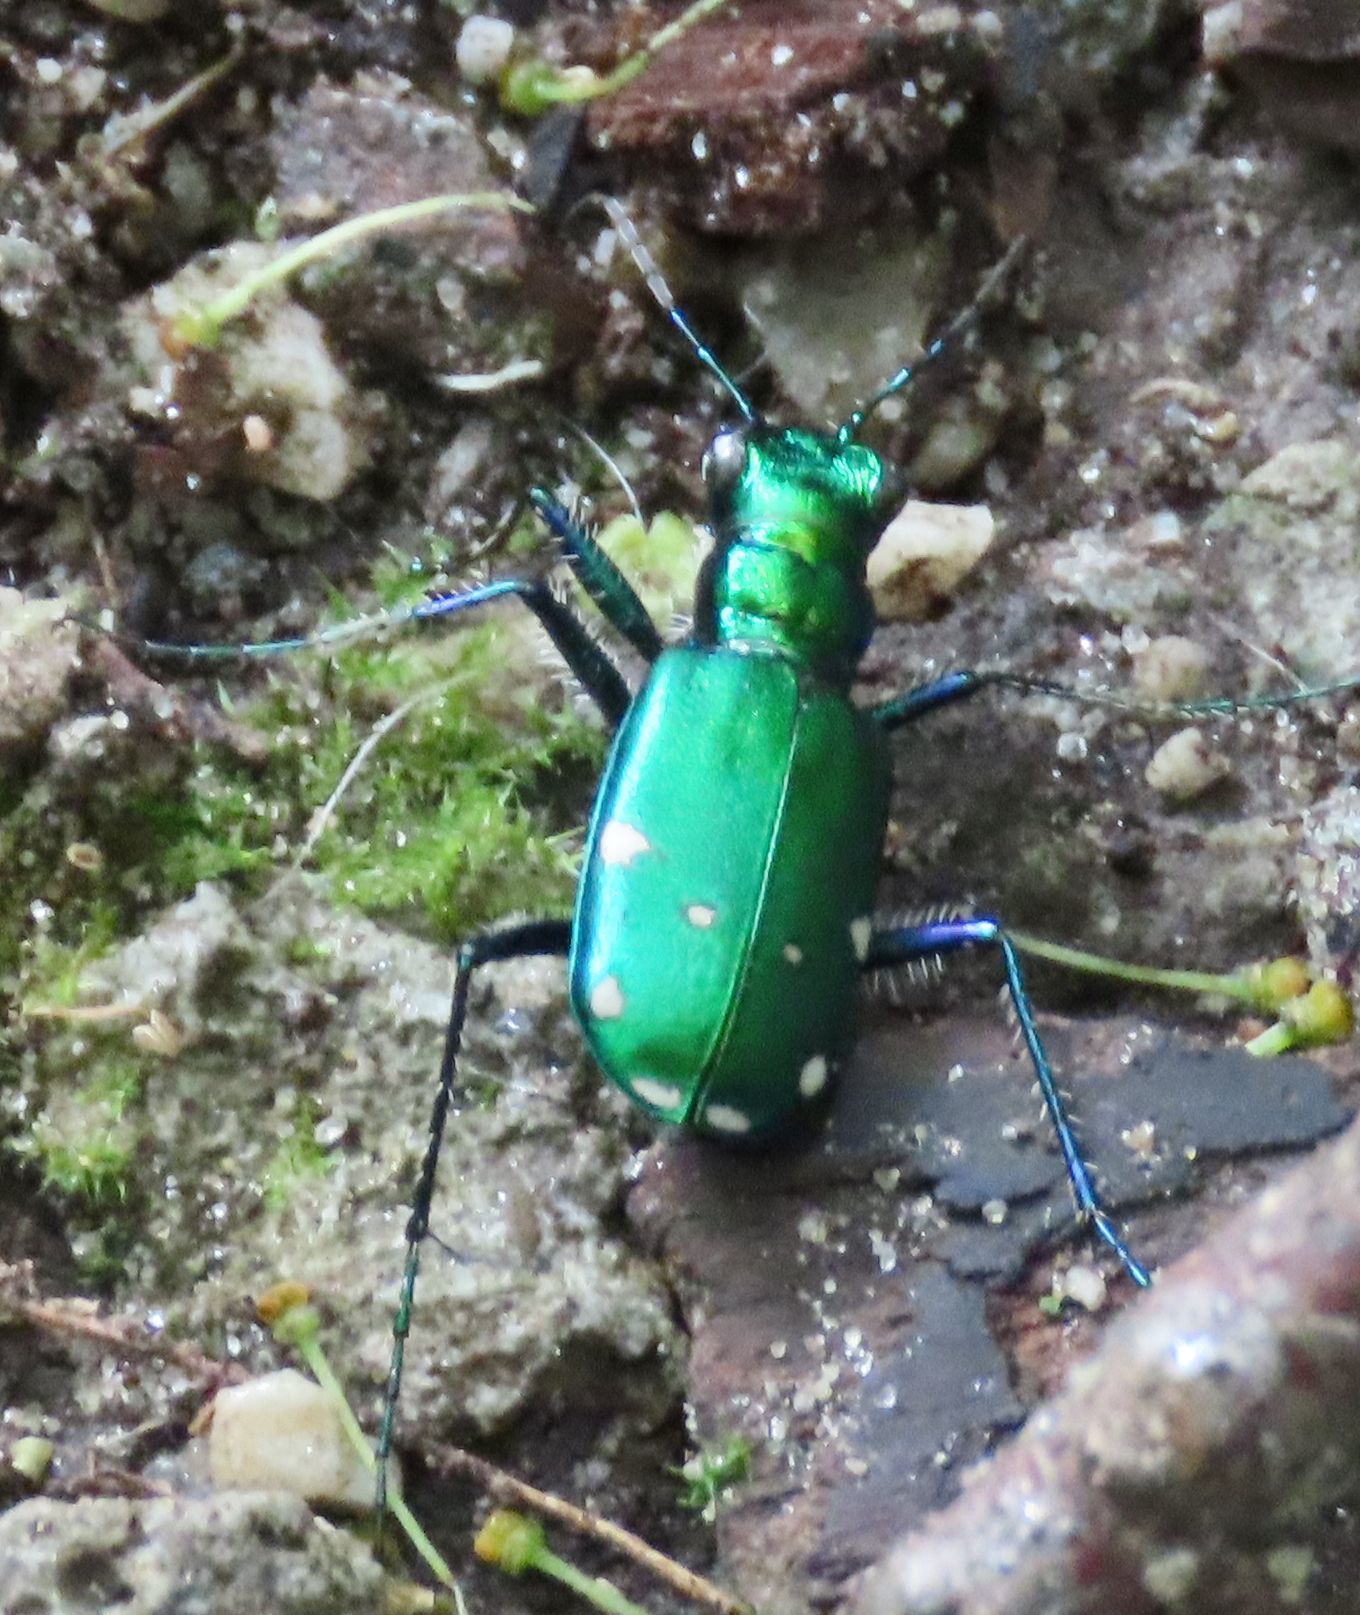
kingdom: Animalia
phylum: Arthropoda
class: Insecta
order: Coleoptera
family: Carabidae
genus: Cicindela
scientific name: Cicindela sexguttata
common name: Six-spotted tiger beetle
